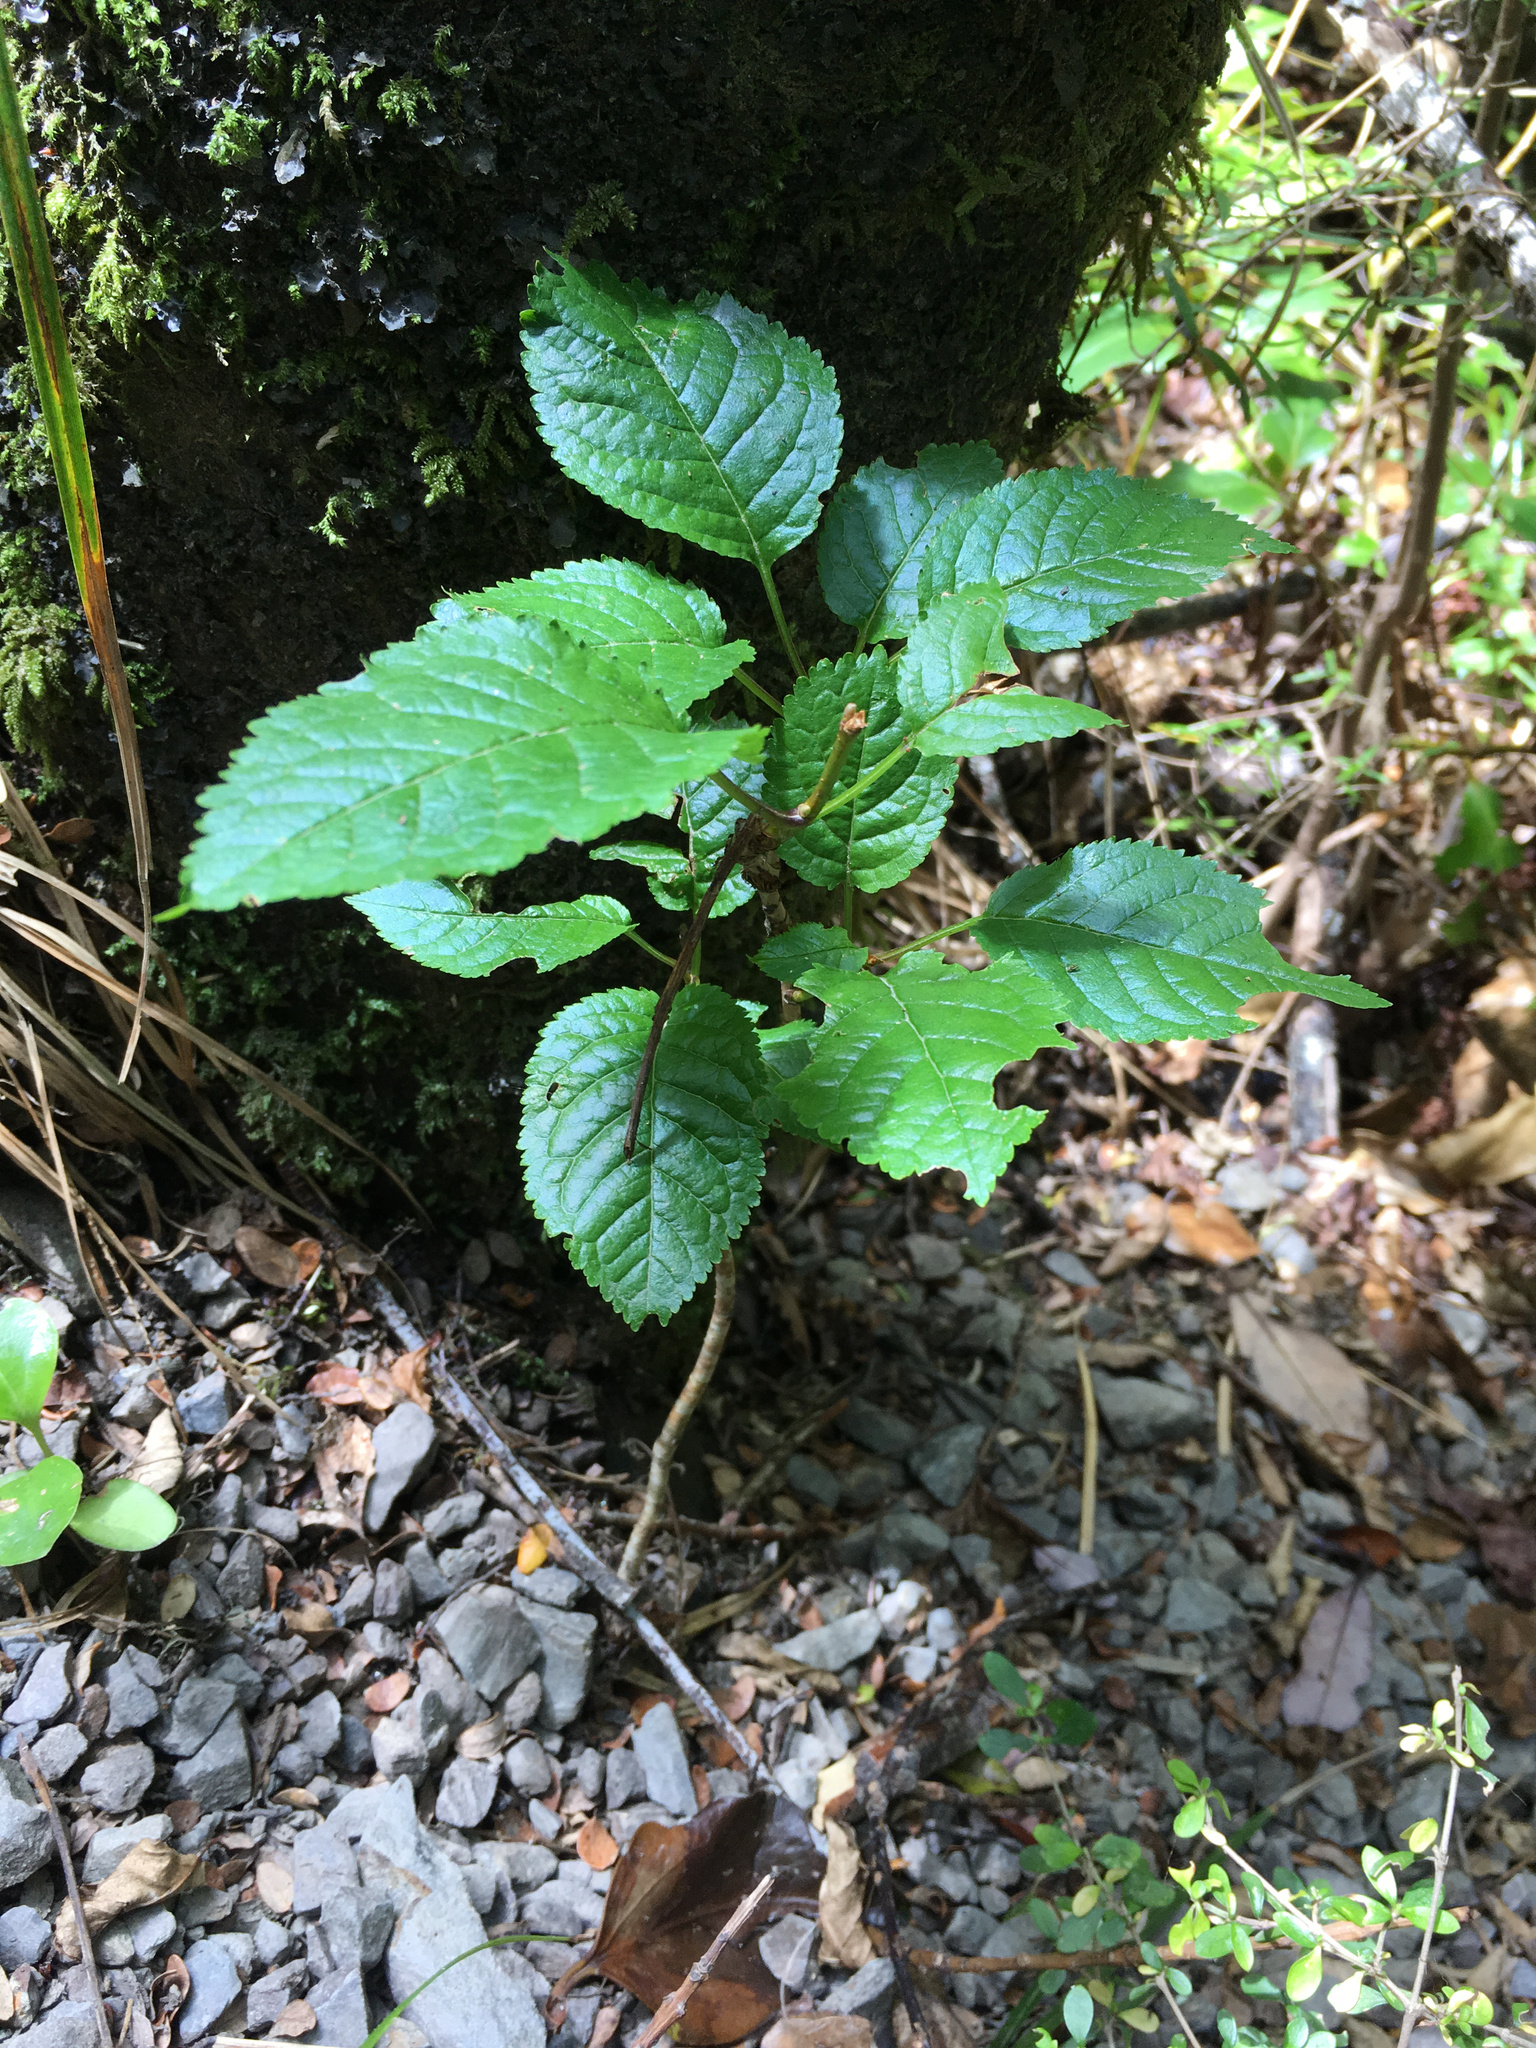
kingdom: Plantae
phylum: Tracheophyta
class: Magnoliopsida
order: Rosales
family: Rosaceae
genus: Prunus
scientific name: Prunus avium
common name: Sweet cherry
